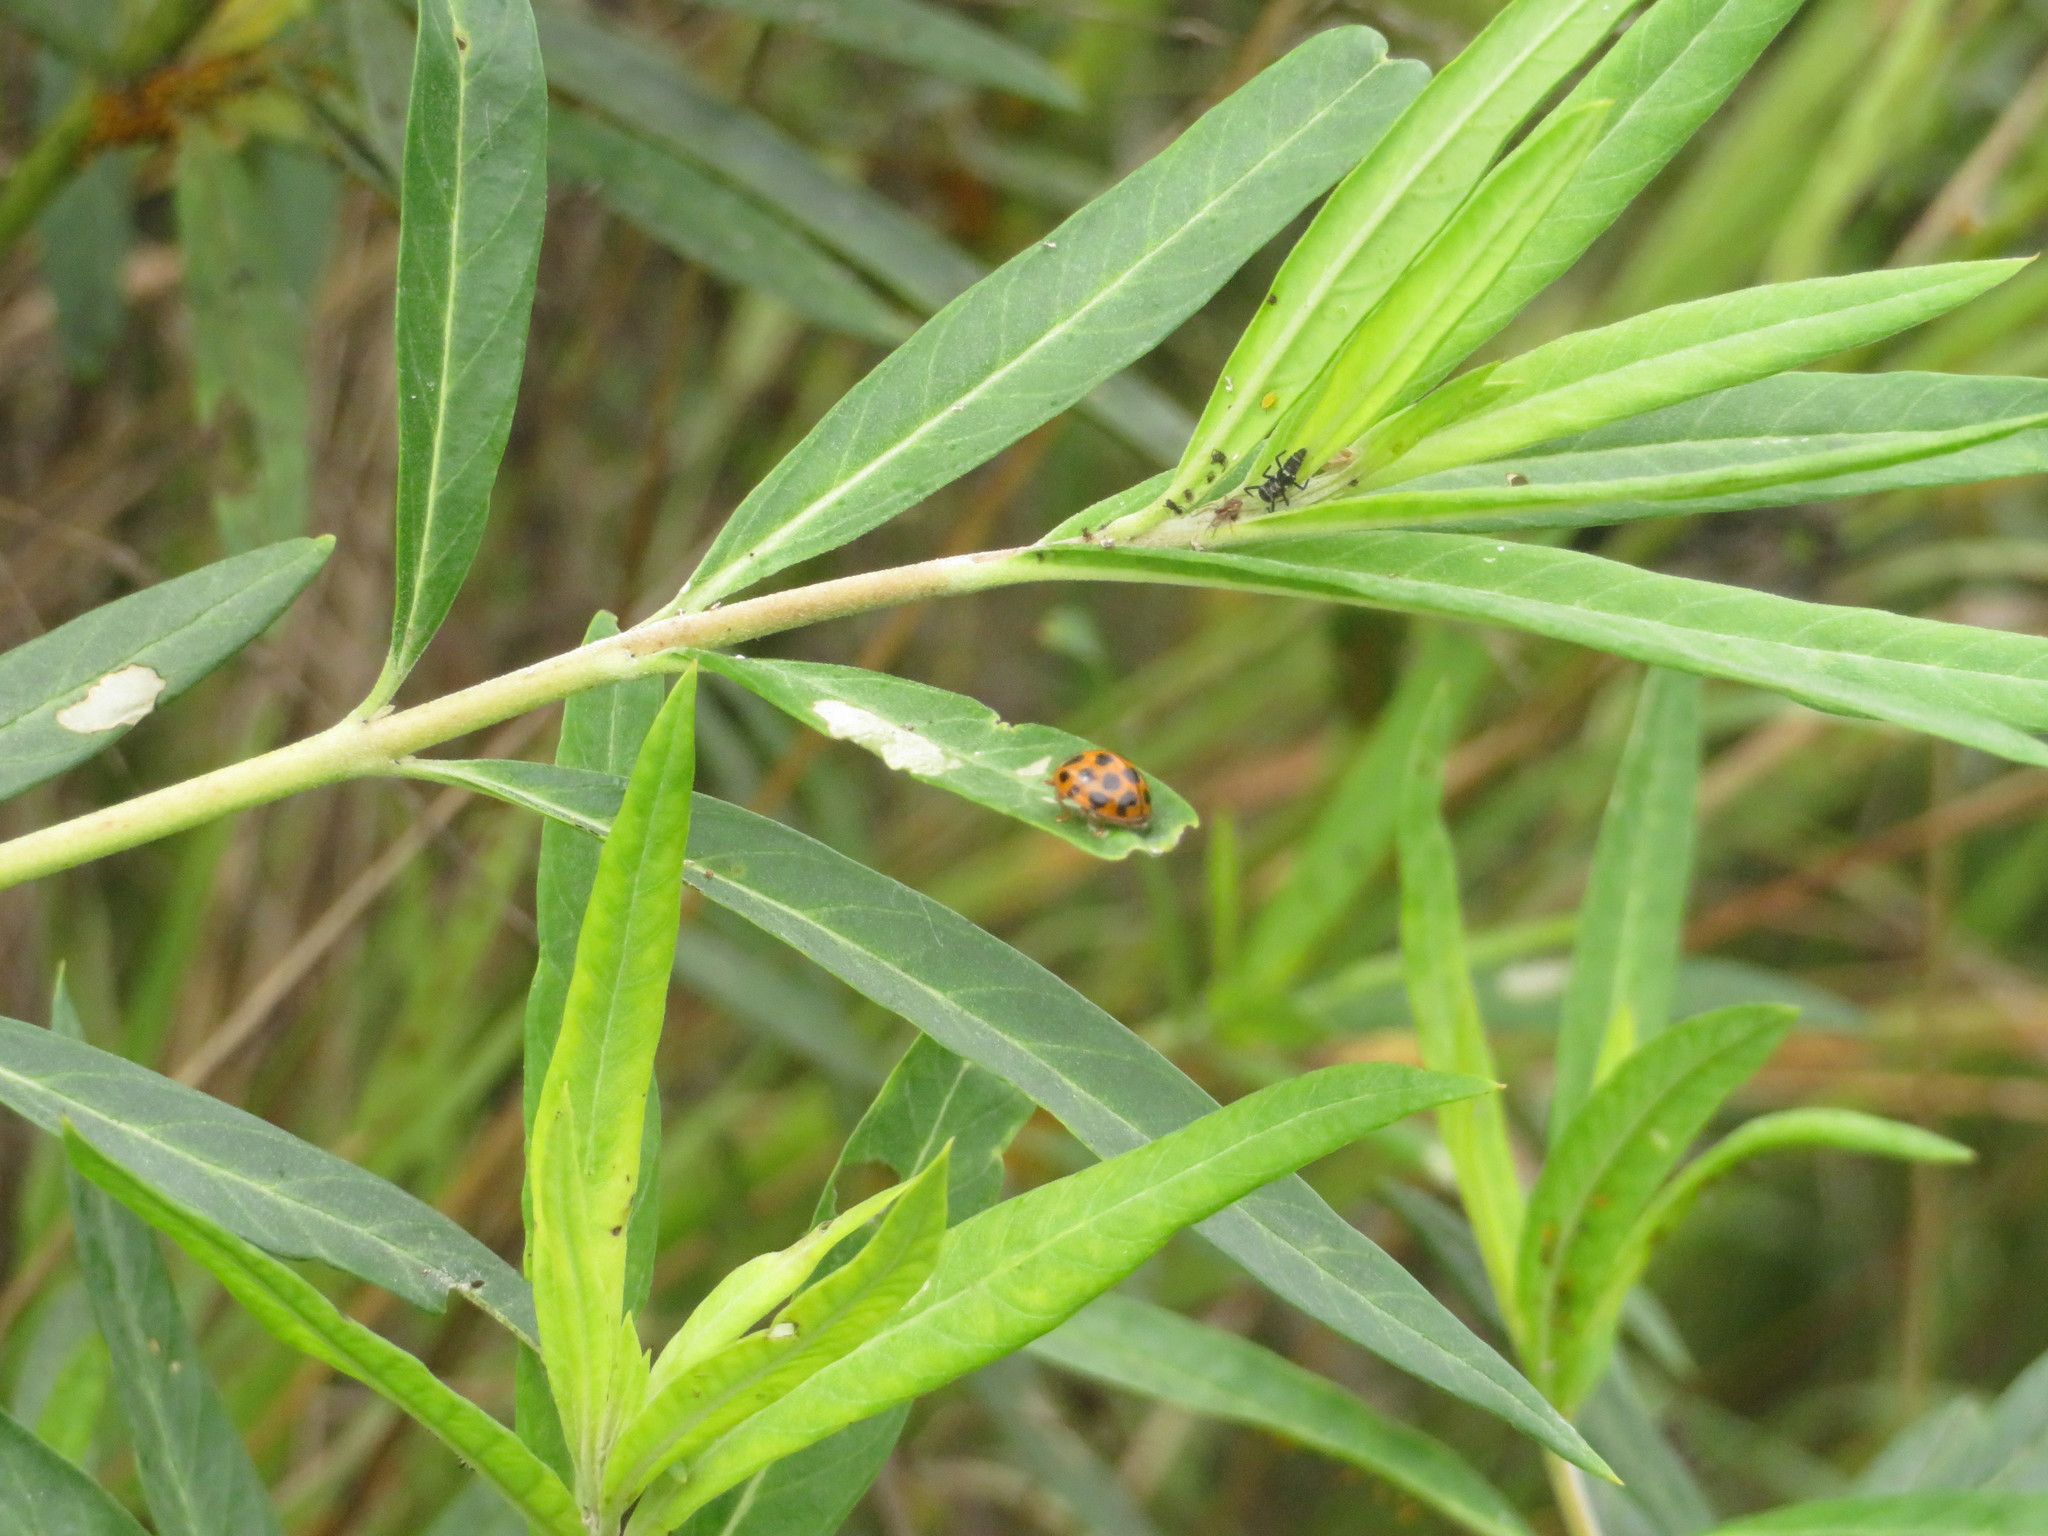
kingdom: Animalia
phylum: Arthropoda
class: Insecta
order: Coleoptera
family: Coccinellidae
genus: Harmonia
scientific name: Harmonia conformis
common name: Common spotted ladybird beetle
